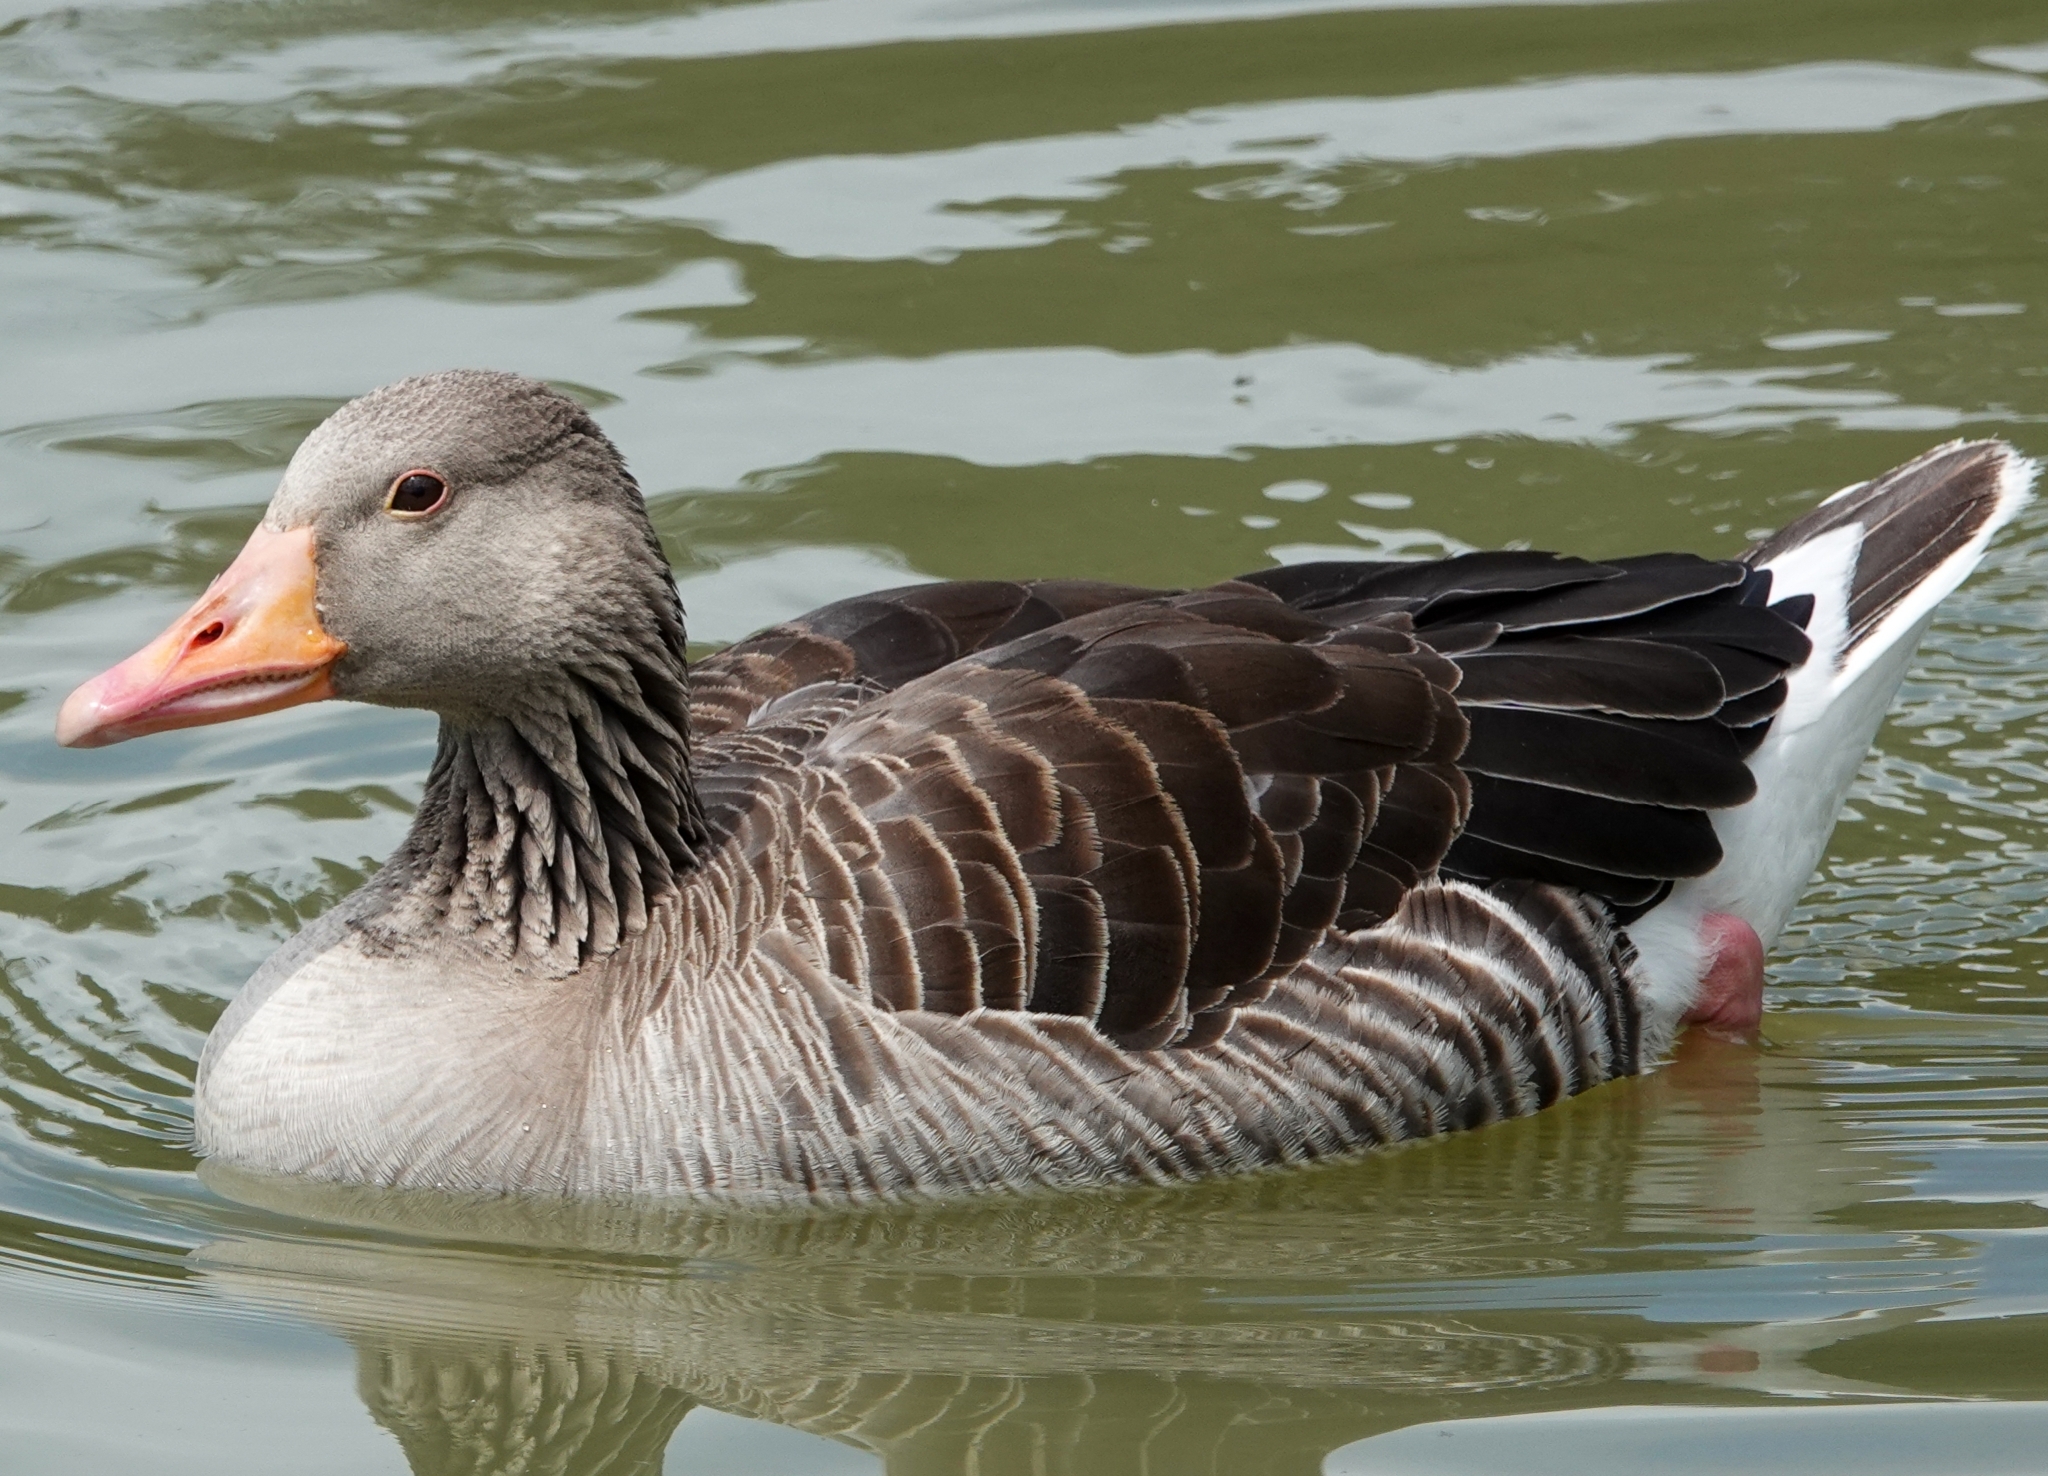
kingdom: Animalia
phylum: Chordata
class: Aves
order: Anseriformes
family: Anatidae
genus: Anser
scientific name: Anser anser
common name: Greylag goose
